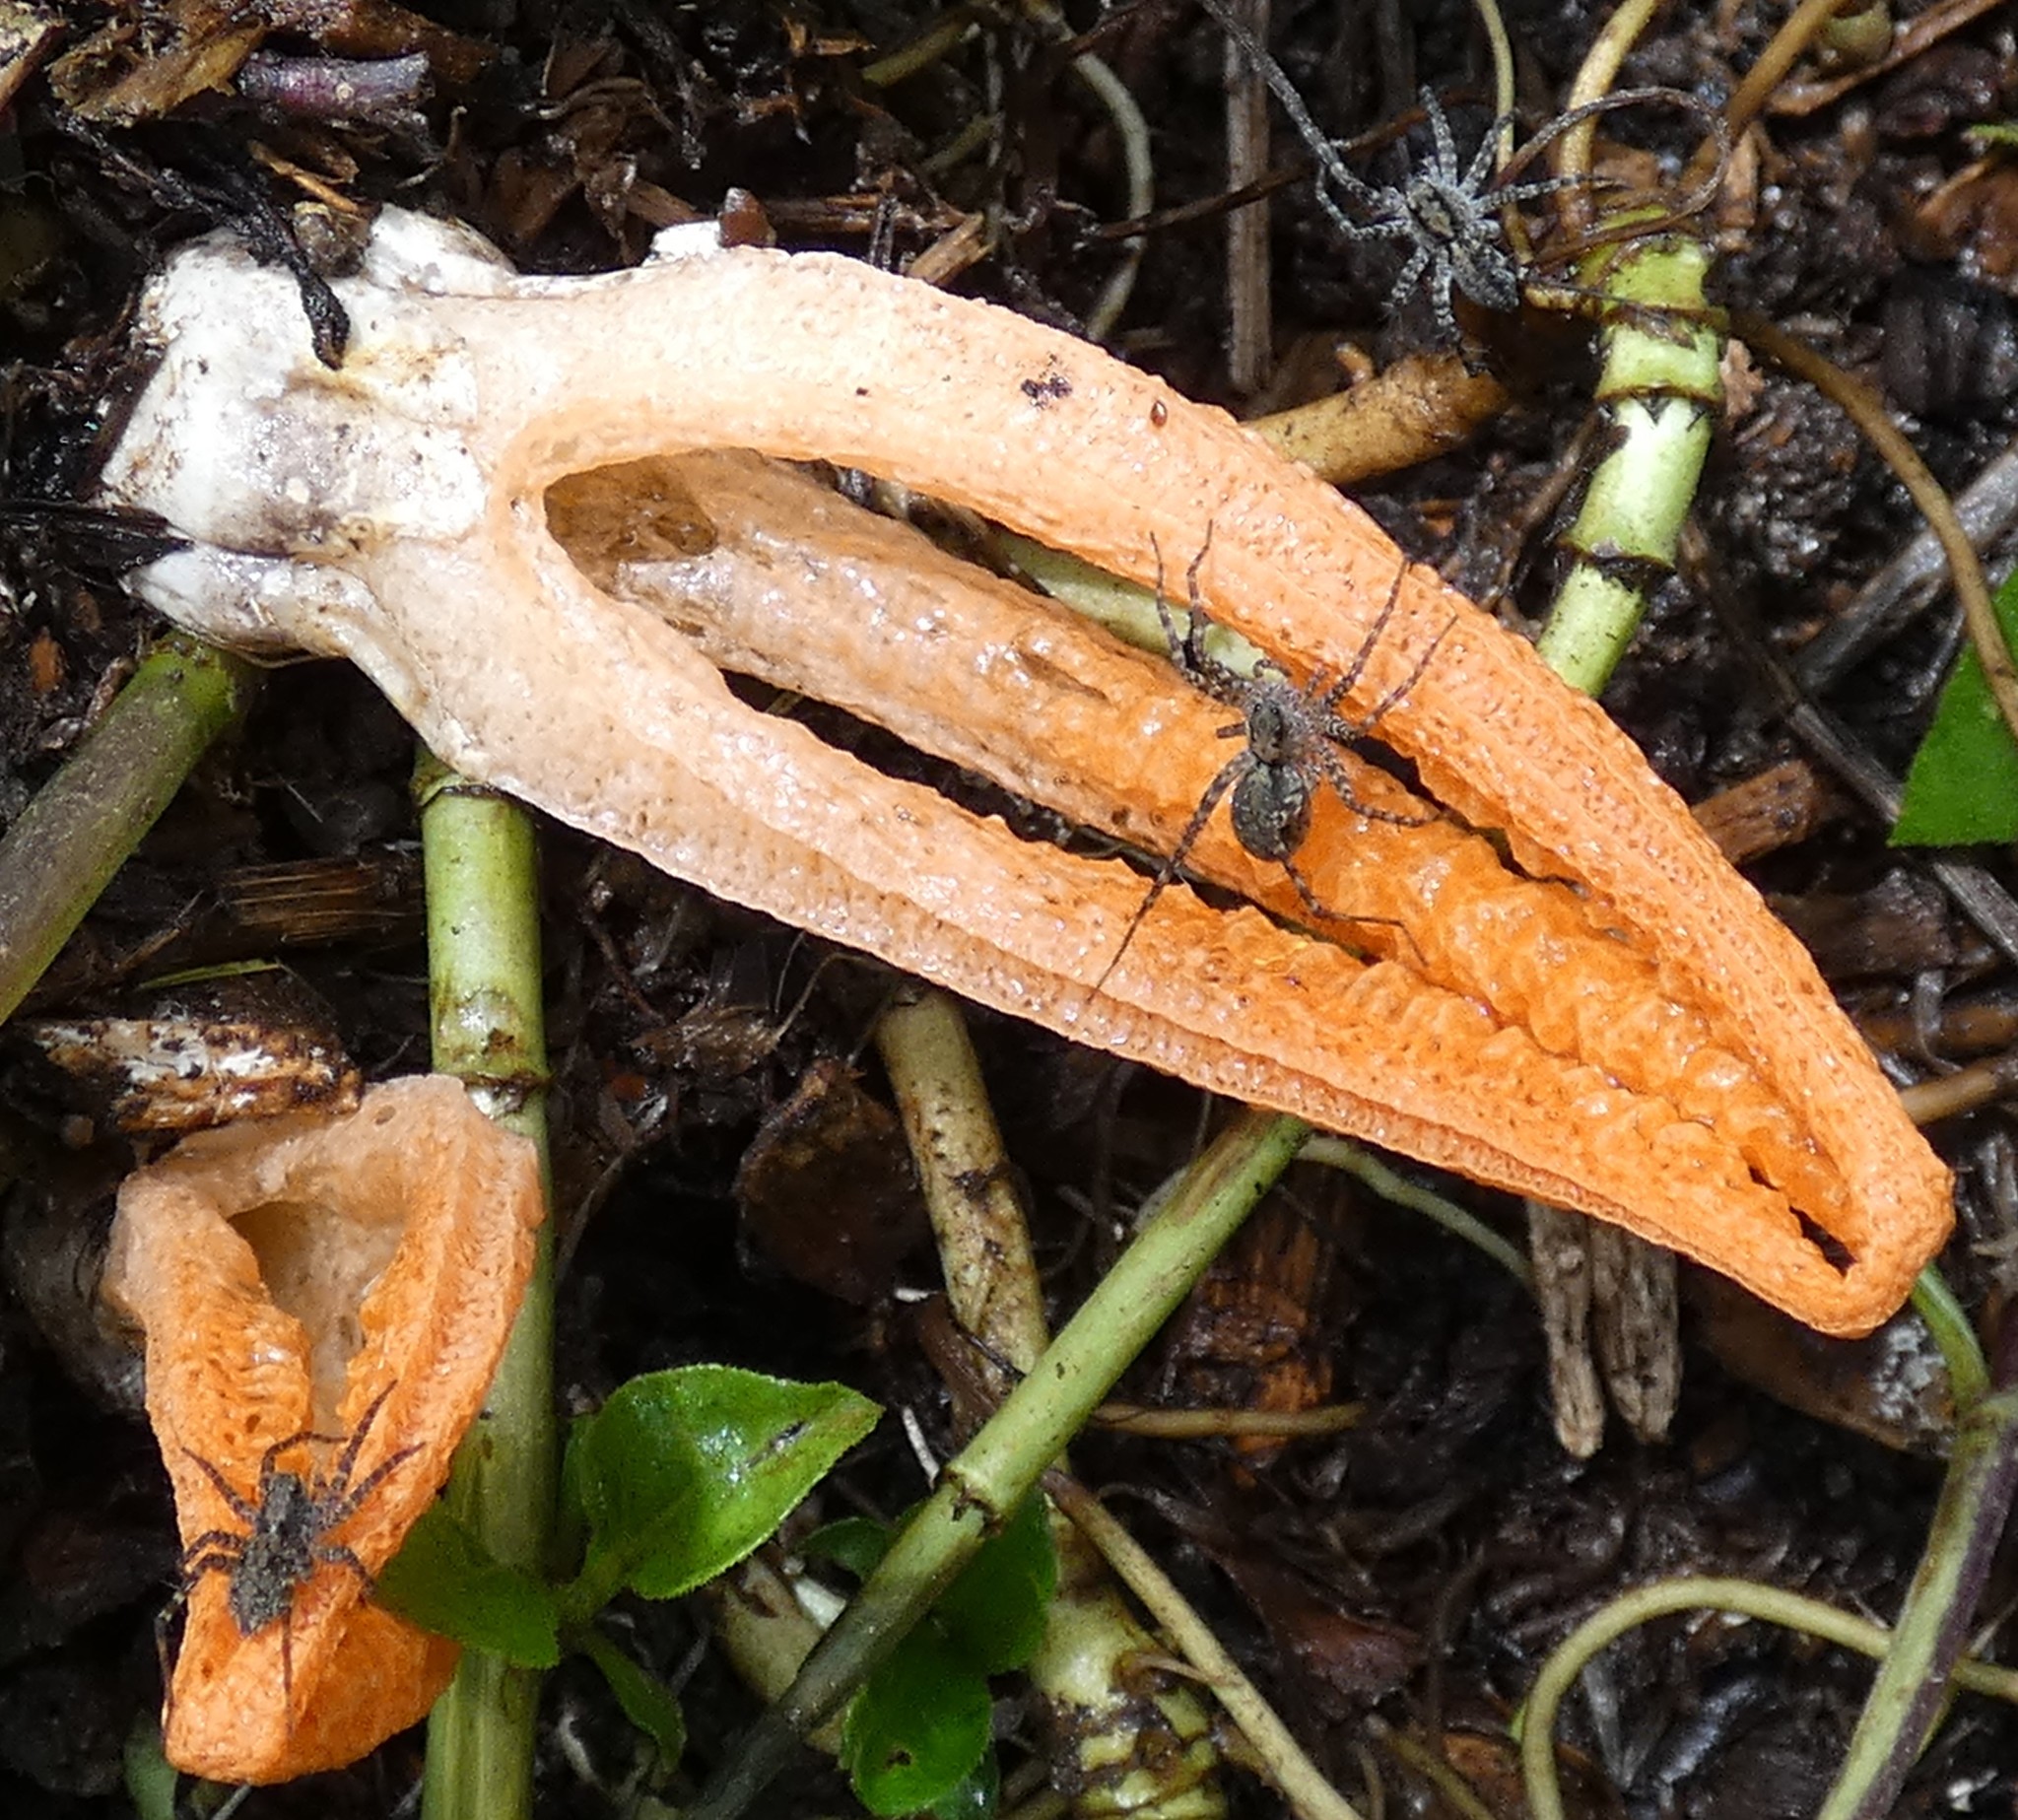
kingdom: Fungi
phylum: Basidiomycota
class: Agaricomycetes
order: Phallales
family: Phallaceae
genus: Pseudocolus
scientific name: Pseudocolus fusiformis
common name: Stinky squid
